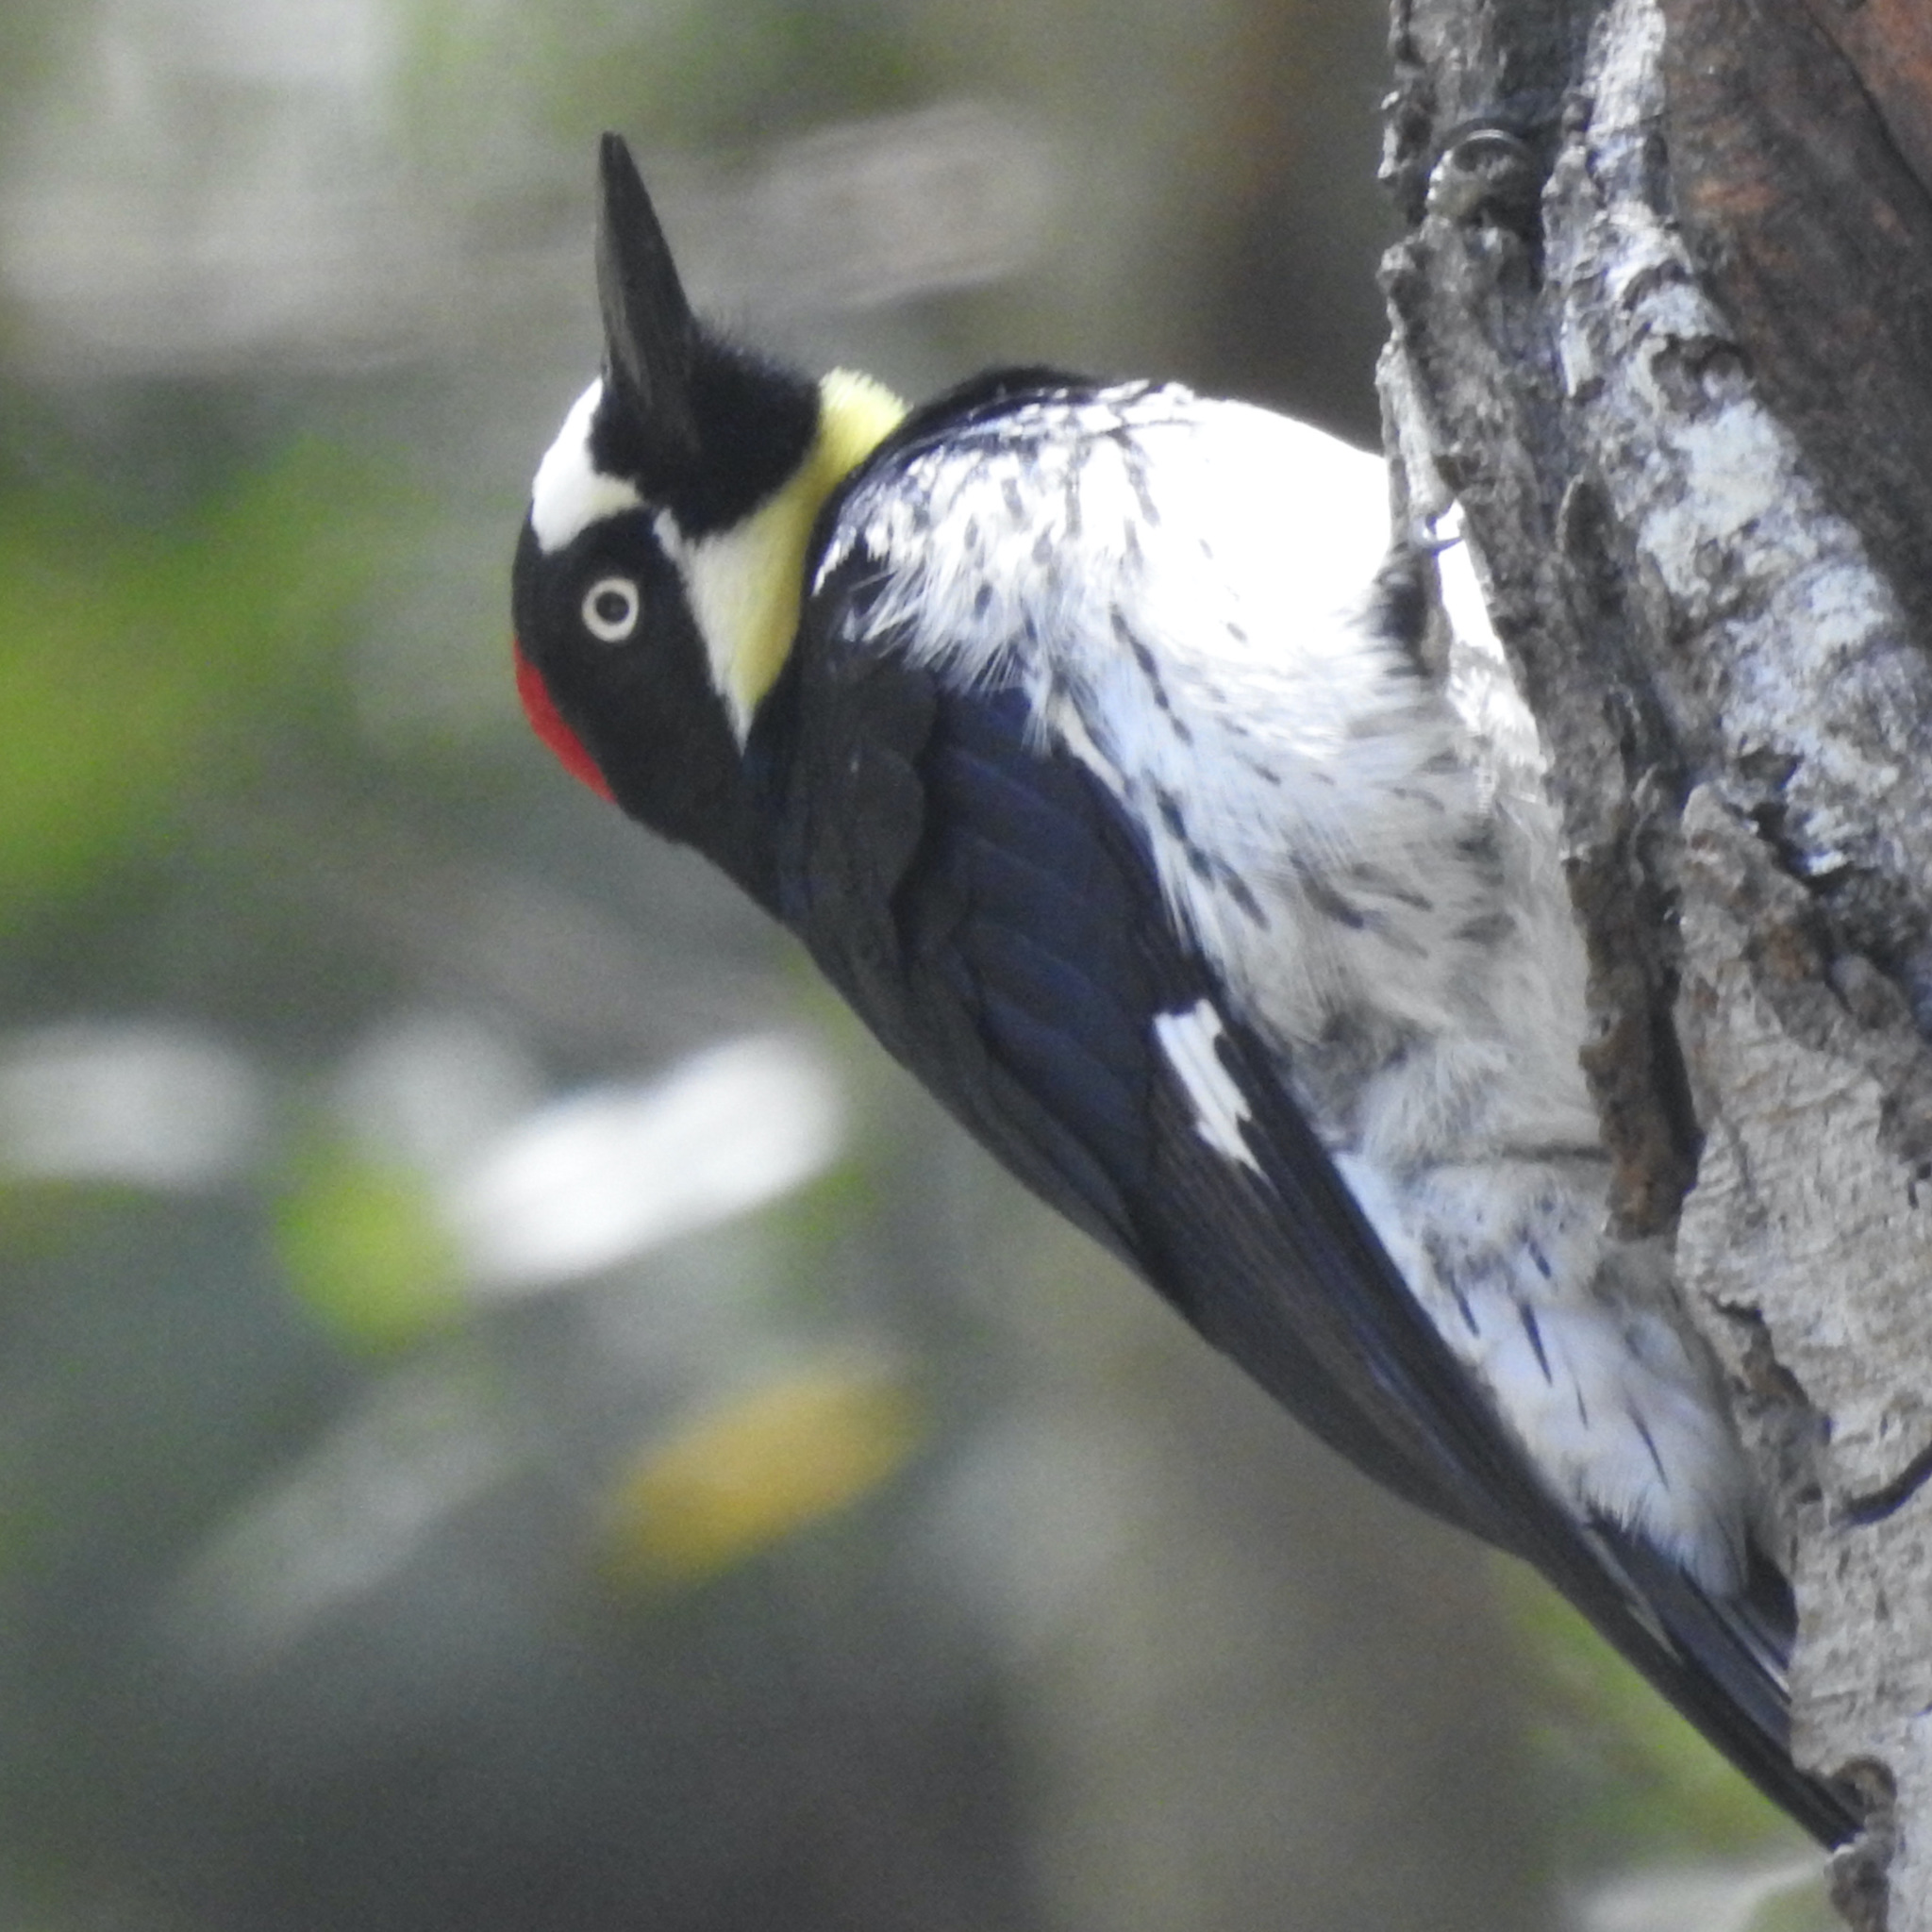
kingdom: Animalia
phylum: Chordata
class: Aves
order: Piciformes
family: Picidae
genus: Melanerpes
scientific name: Melanerpes formicivorus
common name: Acorn woodpecker
